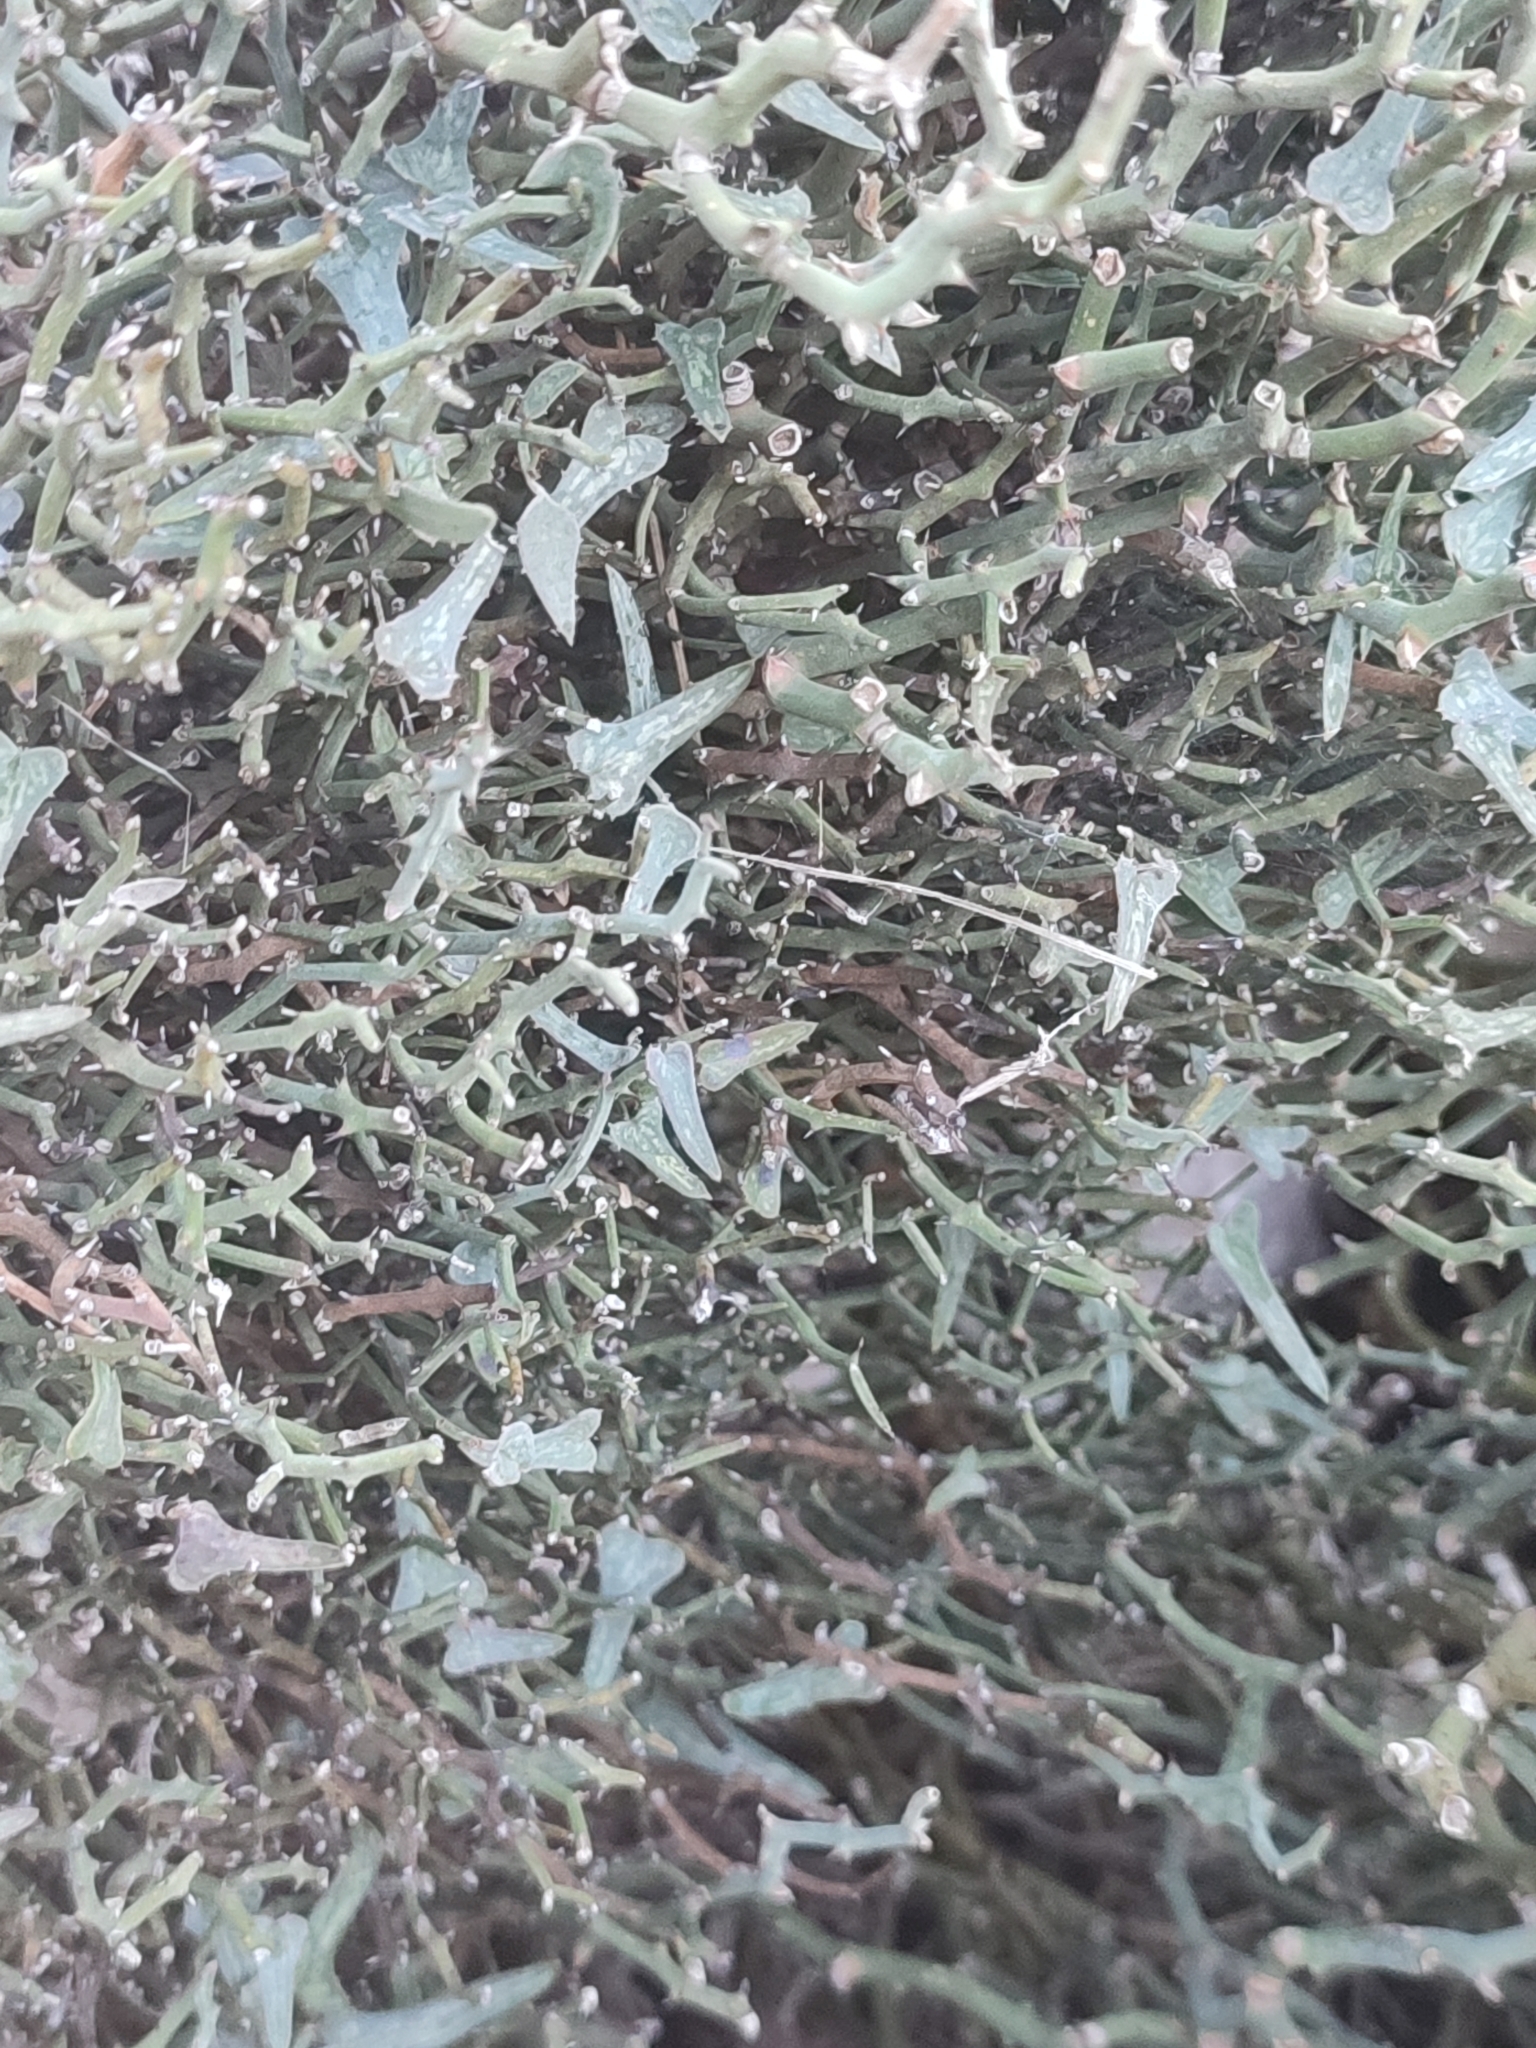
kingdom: Plantae
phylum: Tracheophyta
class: Liliopsida
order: Liliales
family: Smilacaceae
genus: Smilax
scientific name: Smilax aspera
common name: Common smilax
